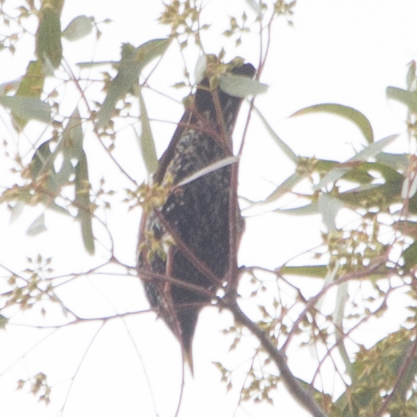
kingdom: Animalia
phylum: Chordata
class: Aves
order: Passeriformes
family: Sturnidae
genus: Sturnus
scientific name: Sturnus vulgaris
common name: Common starling
